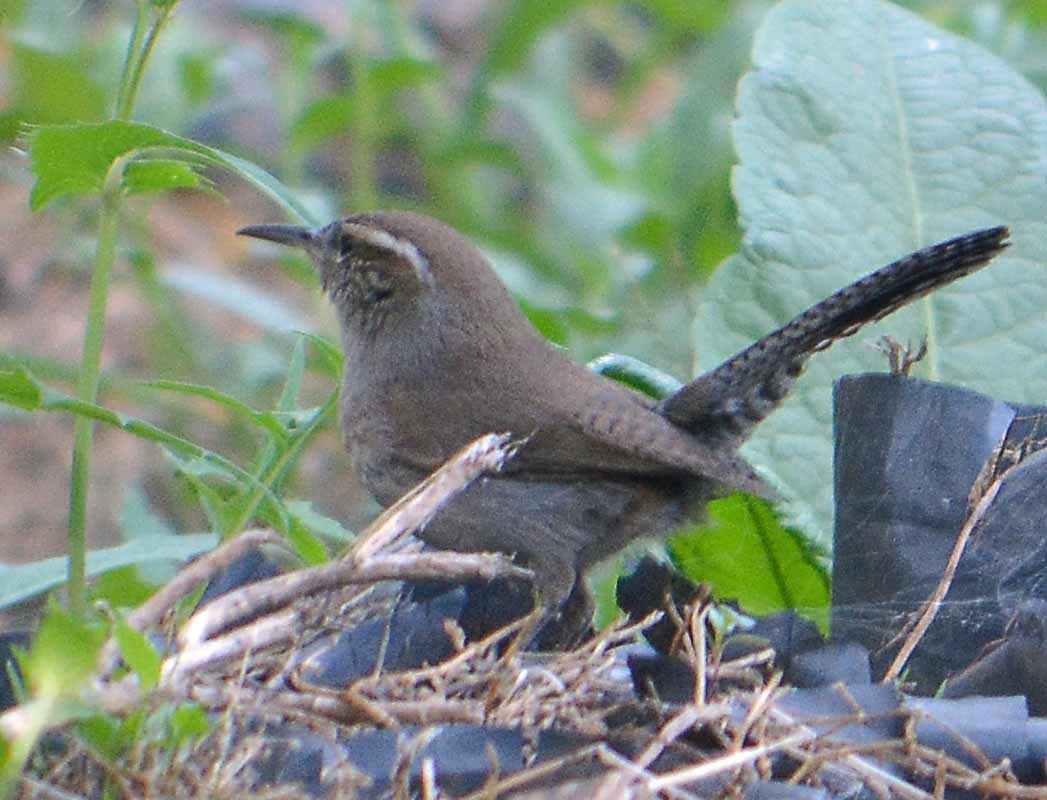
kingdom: Animalia
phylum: Chordata
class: Aves
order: Passeriformes
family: Troglodytidae
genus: Thryomanes
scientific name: Thryomanes bewickii
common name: Bewick's wren
